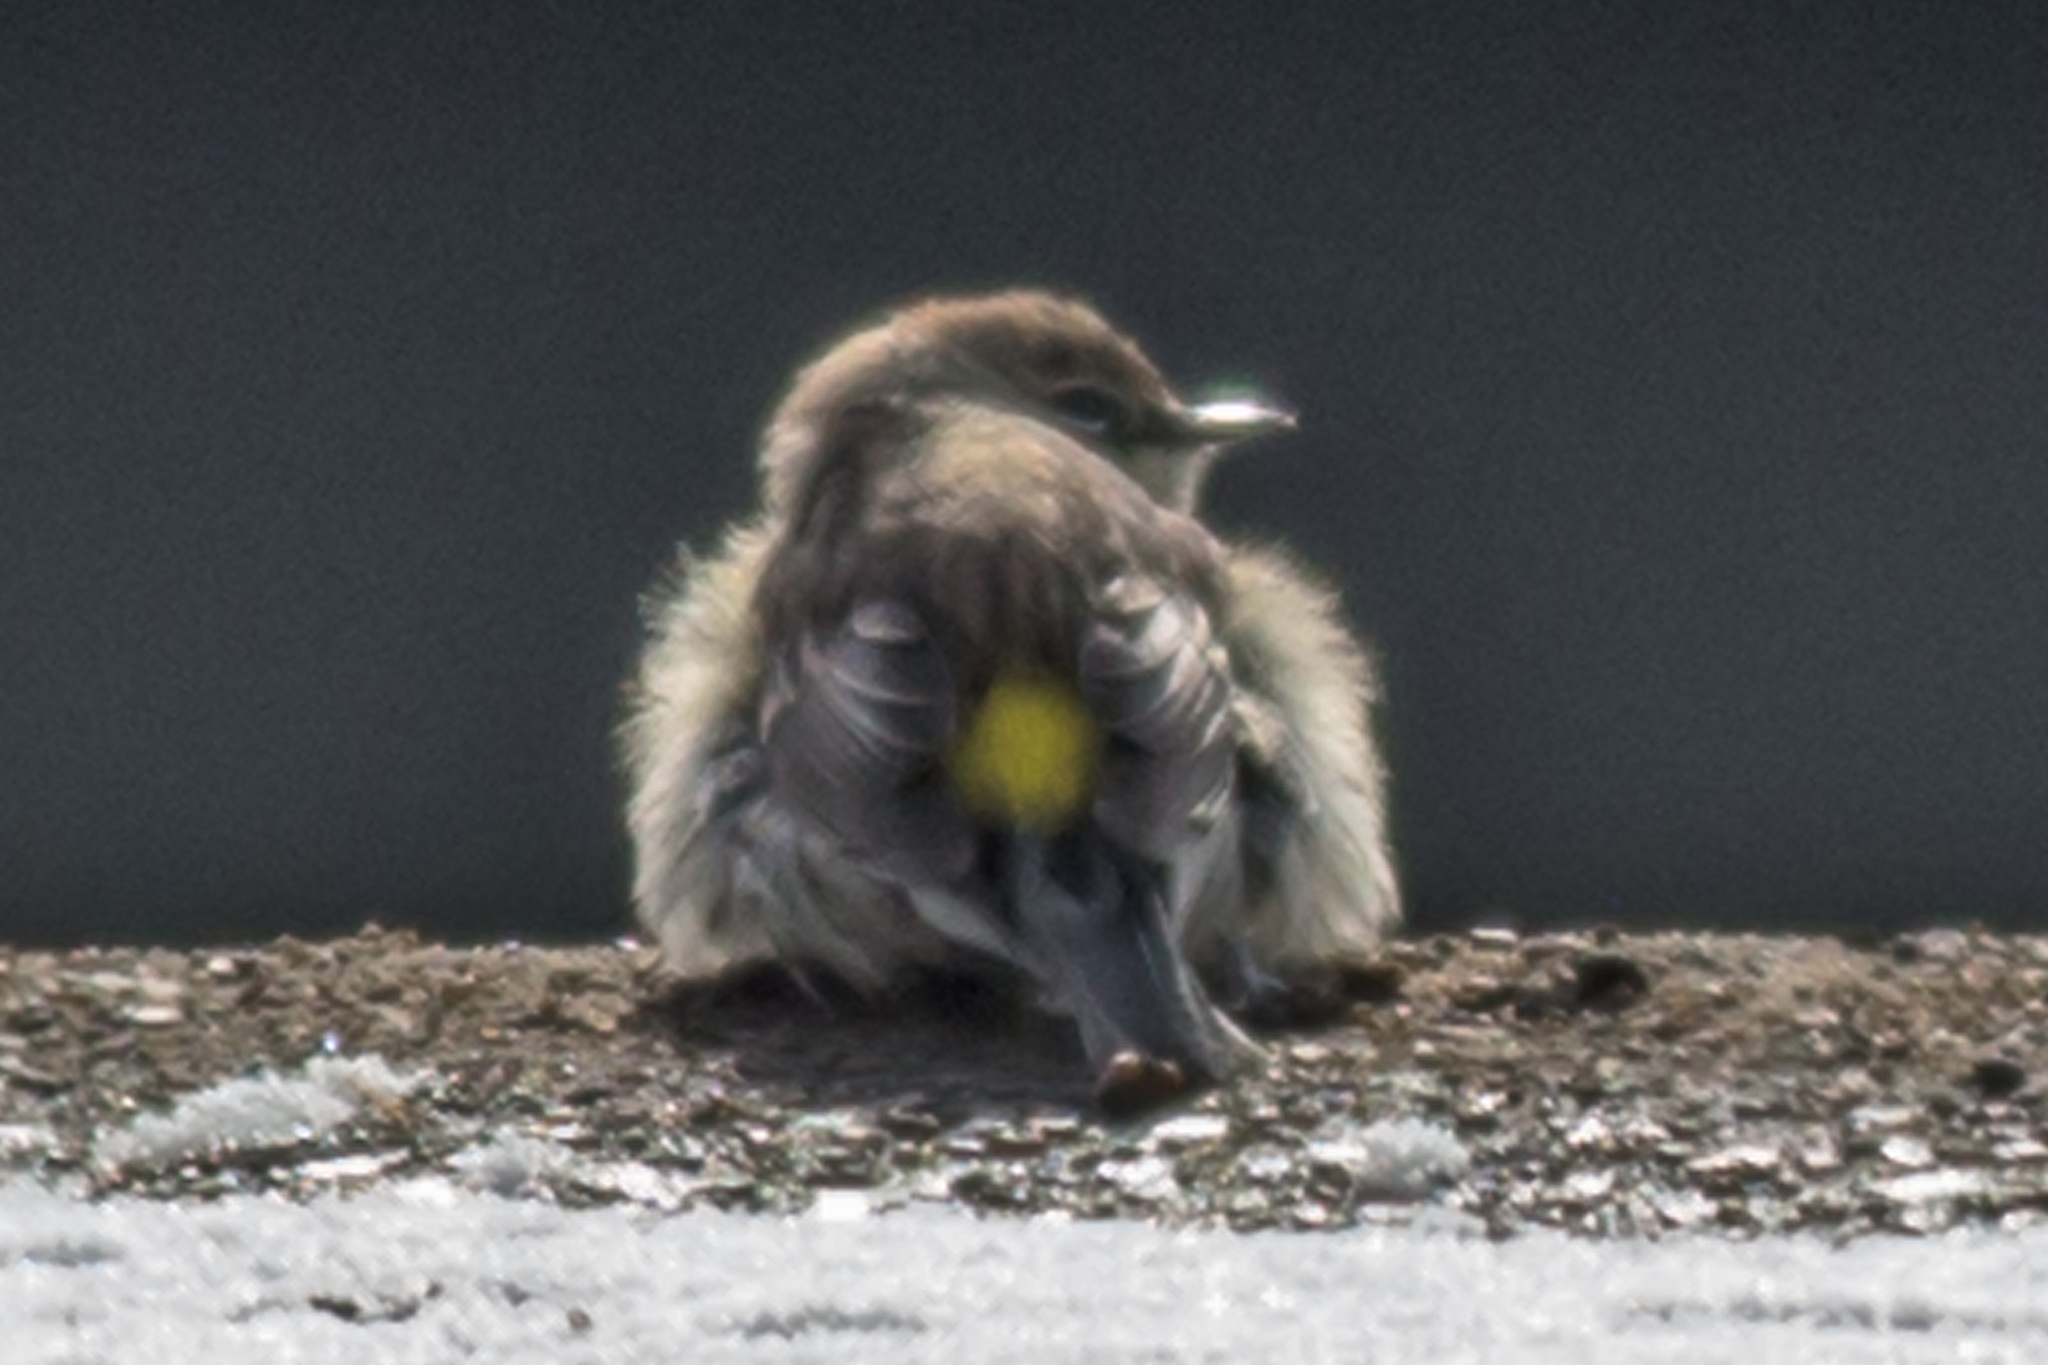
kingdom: Animalia
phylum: Chordata
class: Aves
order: Passeriformes
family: Parulidae
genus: Setophaga
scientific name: Setophaga coronata
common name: Myrtle warbler
